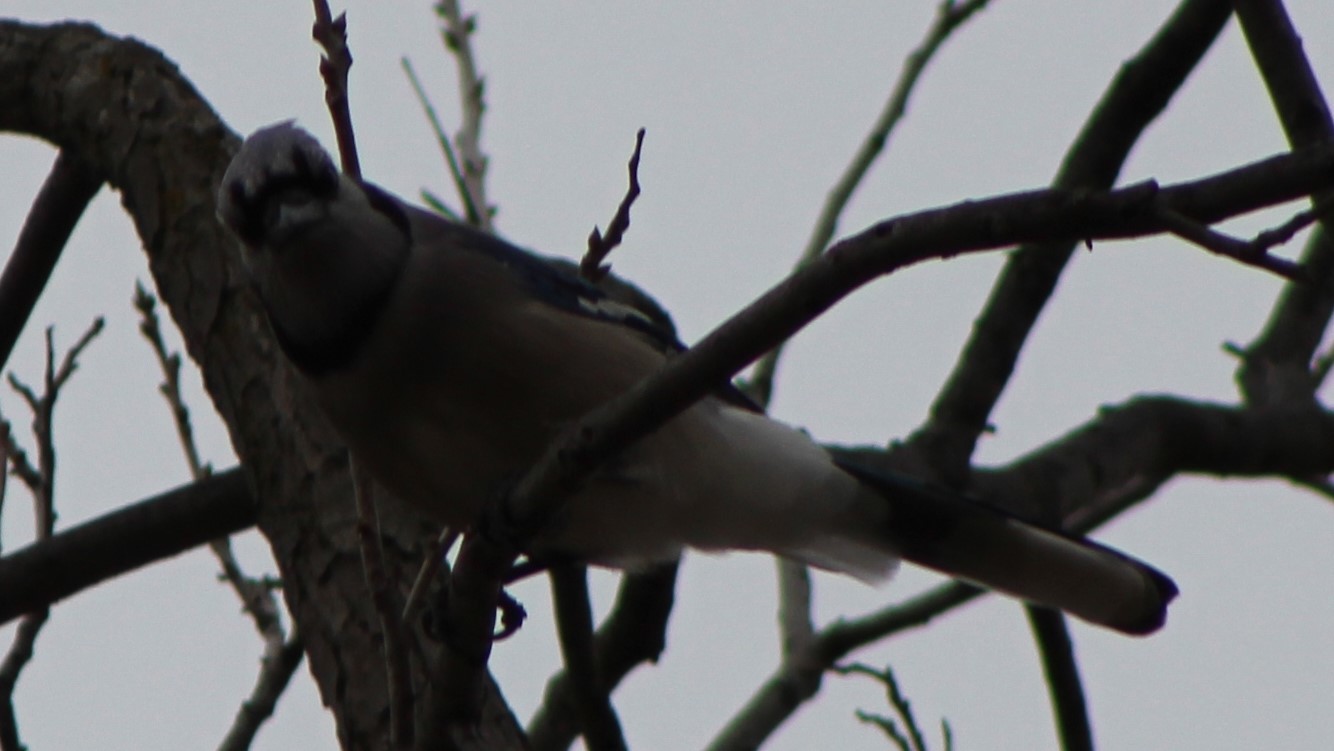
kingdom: Animalia
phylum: Chordata
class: Aves
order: Passeriformes
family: Corvidae
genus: Cyanocitta
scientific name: Cyanocitta cristata
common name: Blue jay
